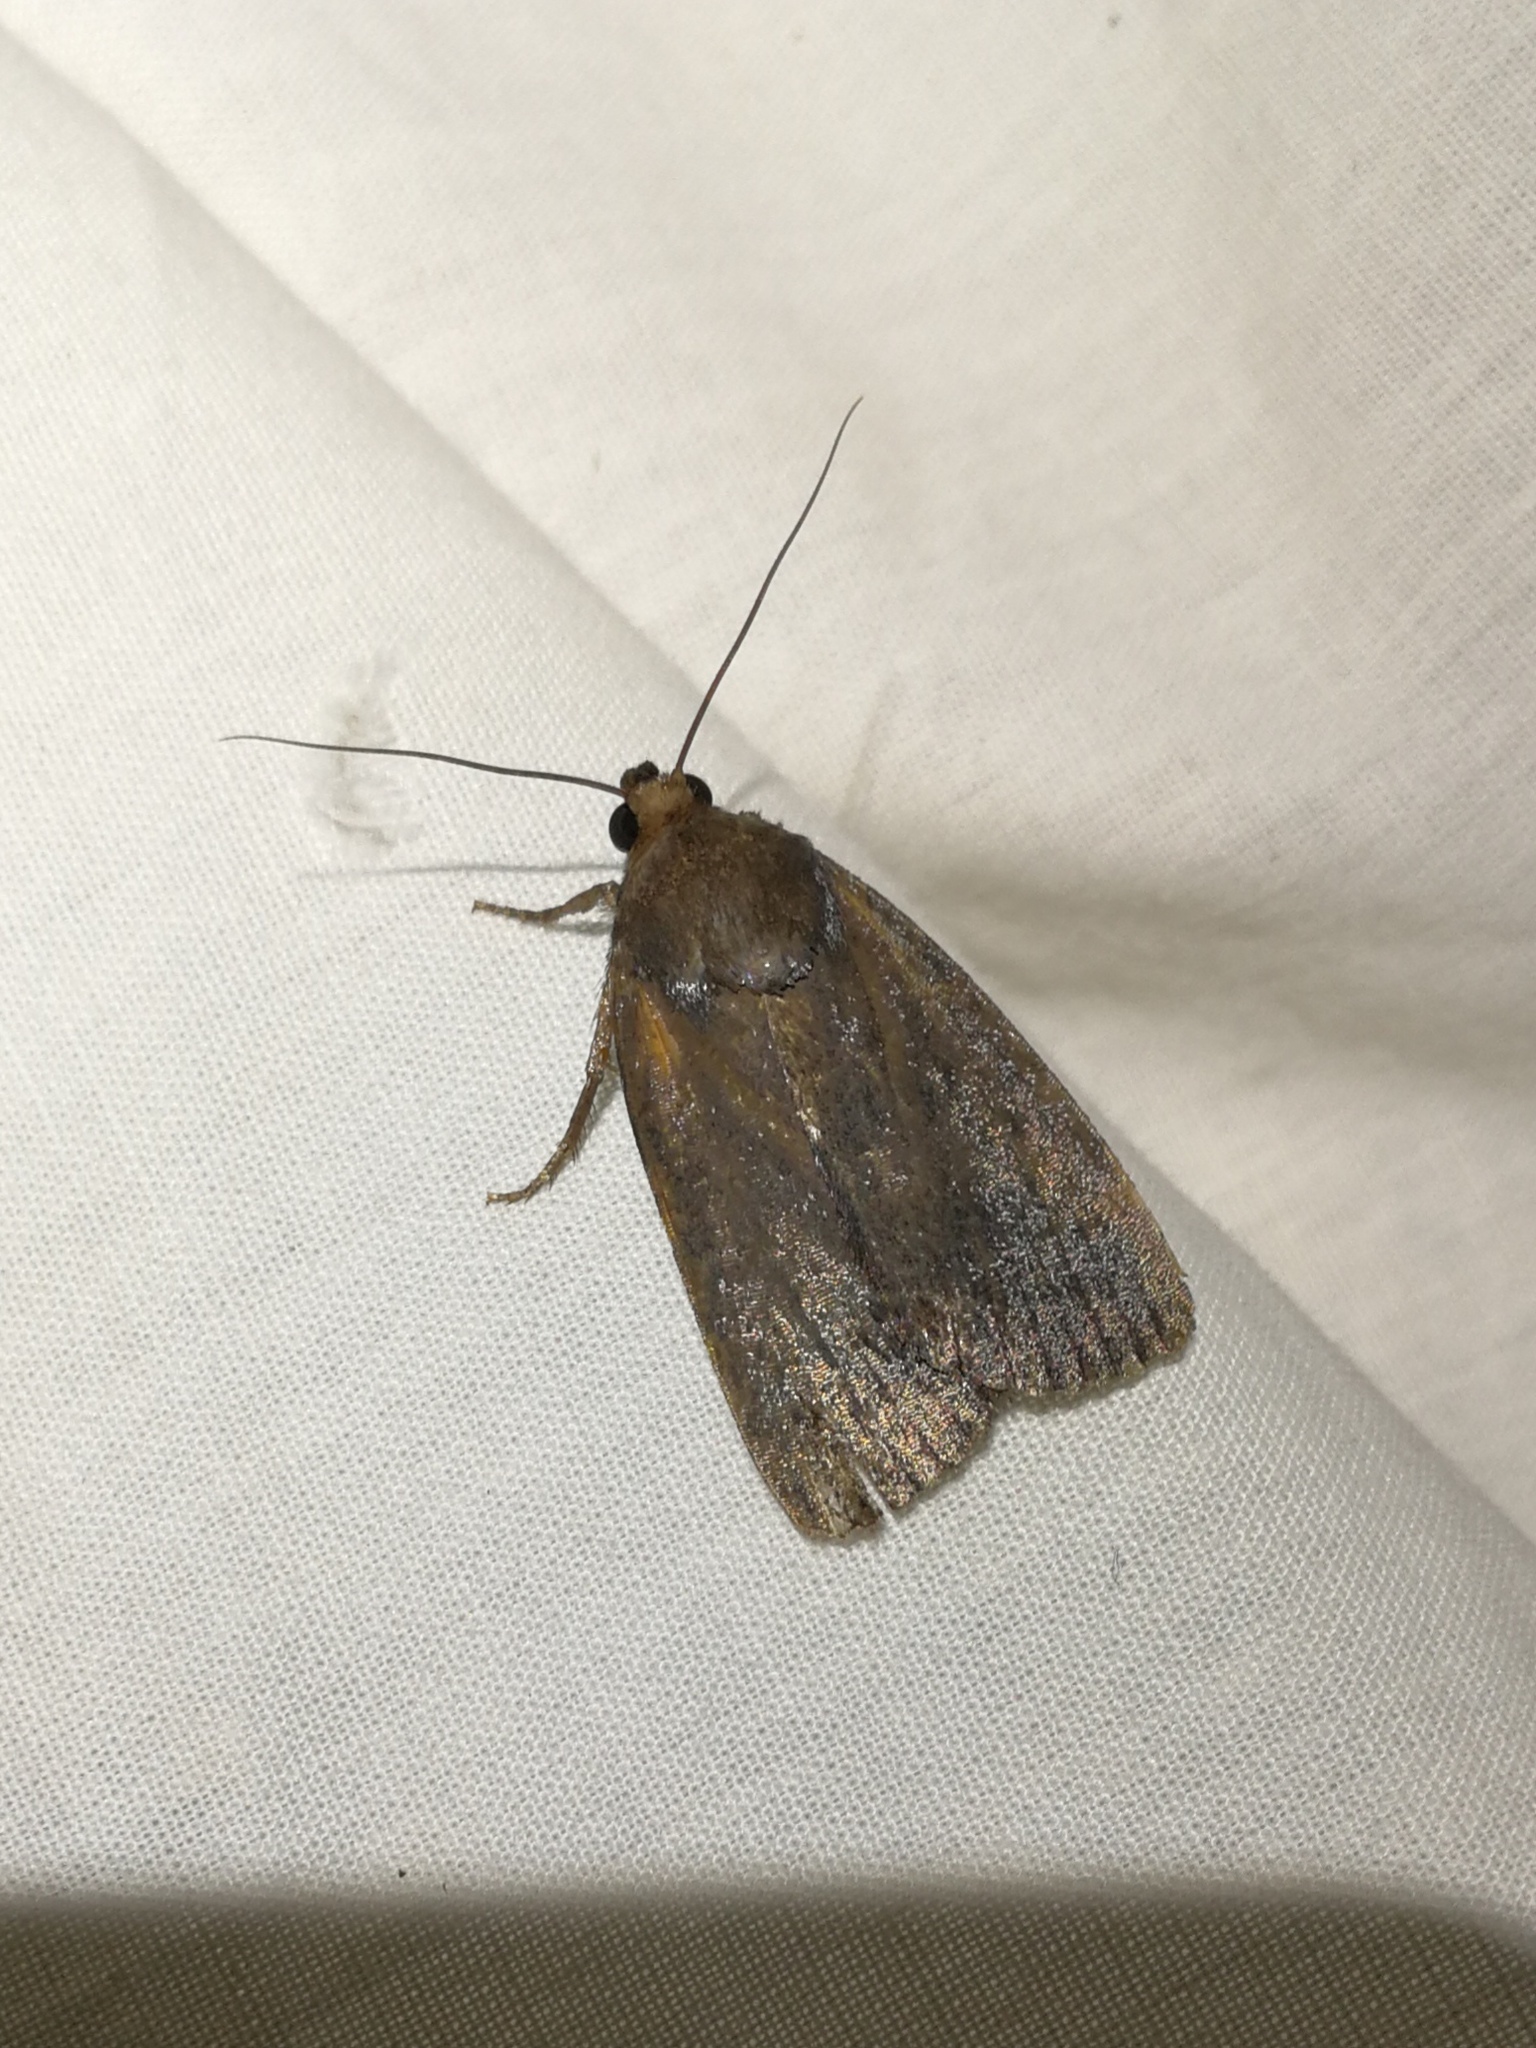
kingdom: Animalia
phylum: Arthropoda
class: Insecta
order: Lepidoptera
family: Noctuidae
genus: Amphipyra
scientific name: Amphipyra livida
